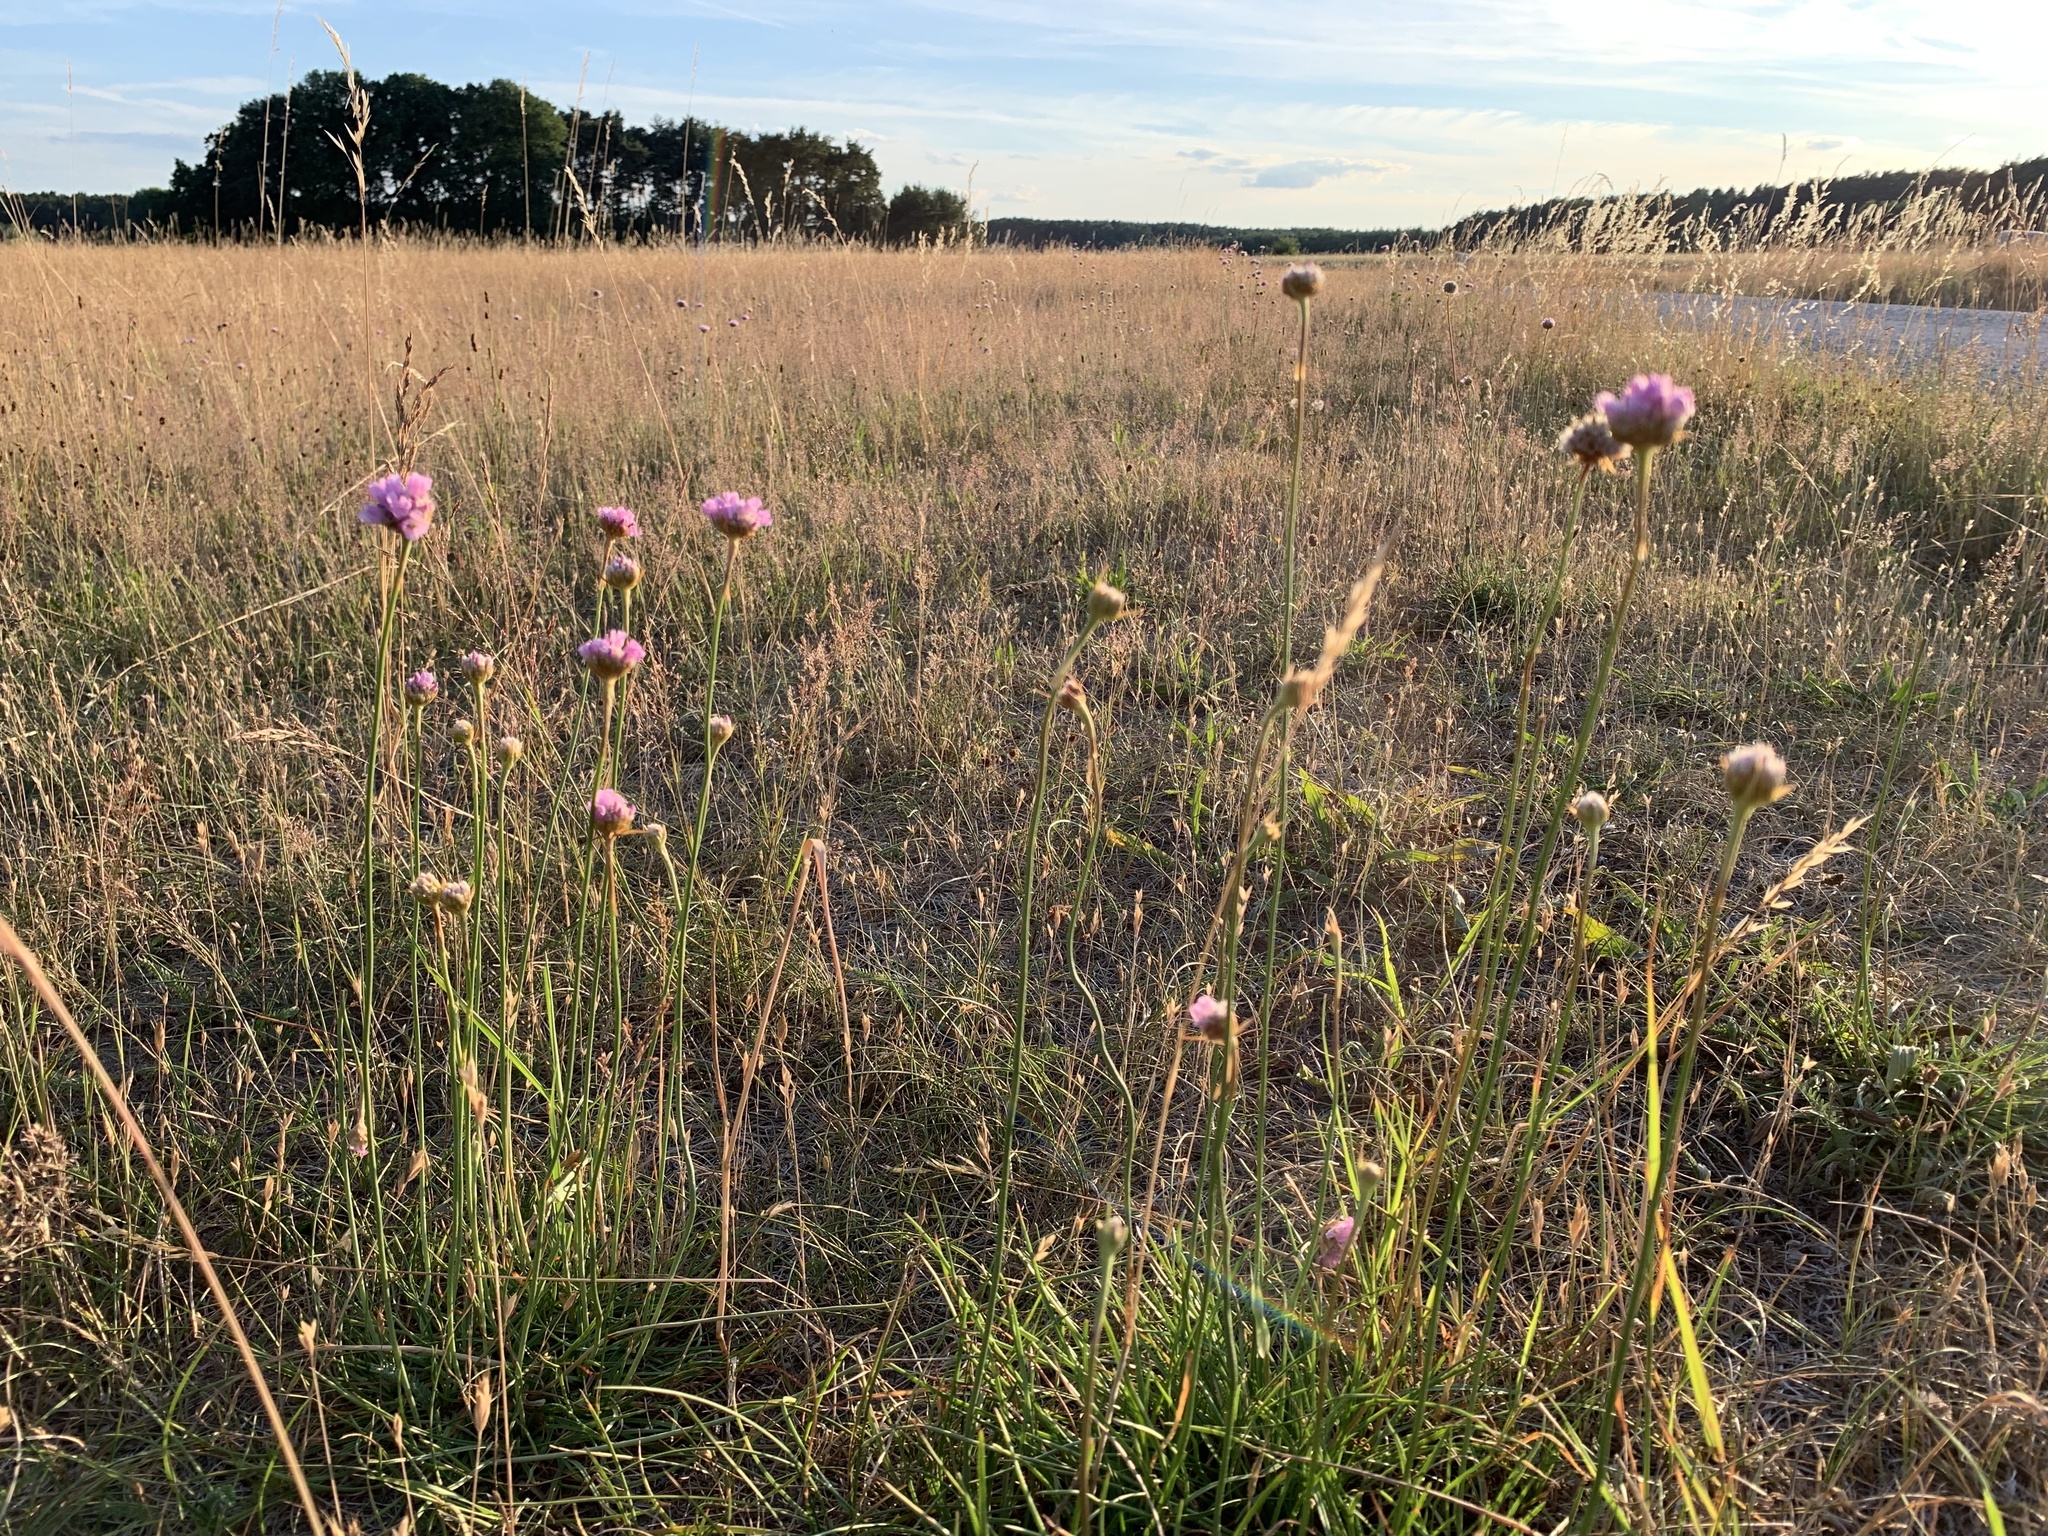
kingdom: Plantae
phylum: Tracheophyta
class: Magnoliopsida
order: Caryophyllales
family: Plumbaginaceae
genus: Armeria
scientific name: Armeria maritima
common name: Thrift
